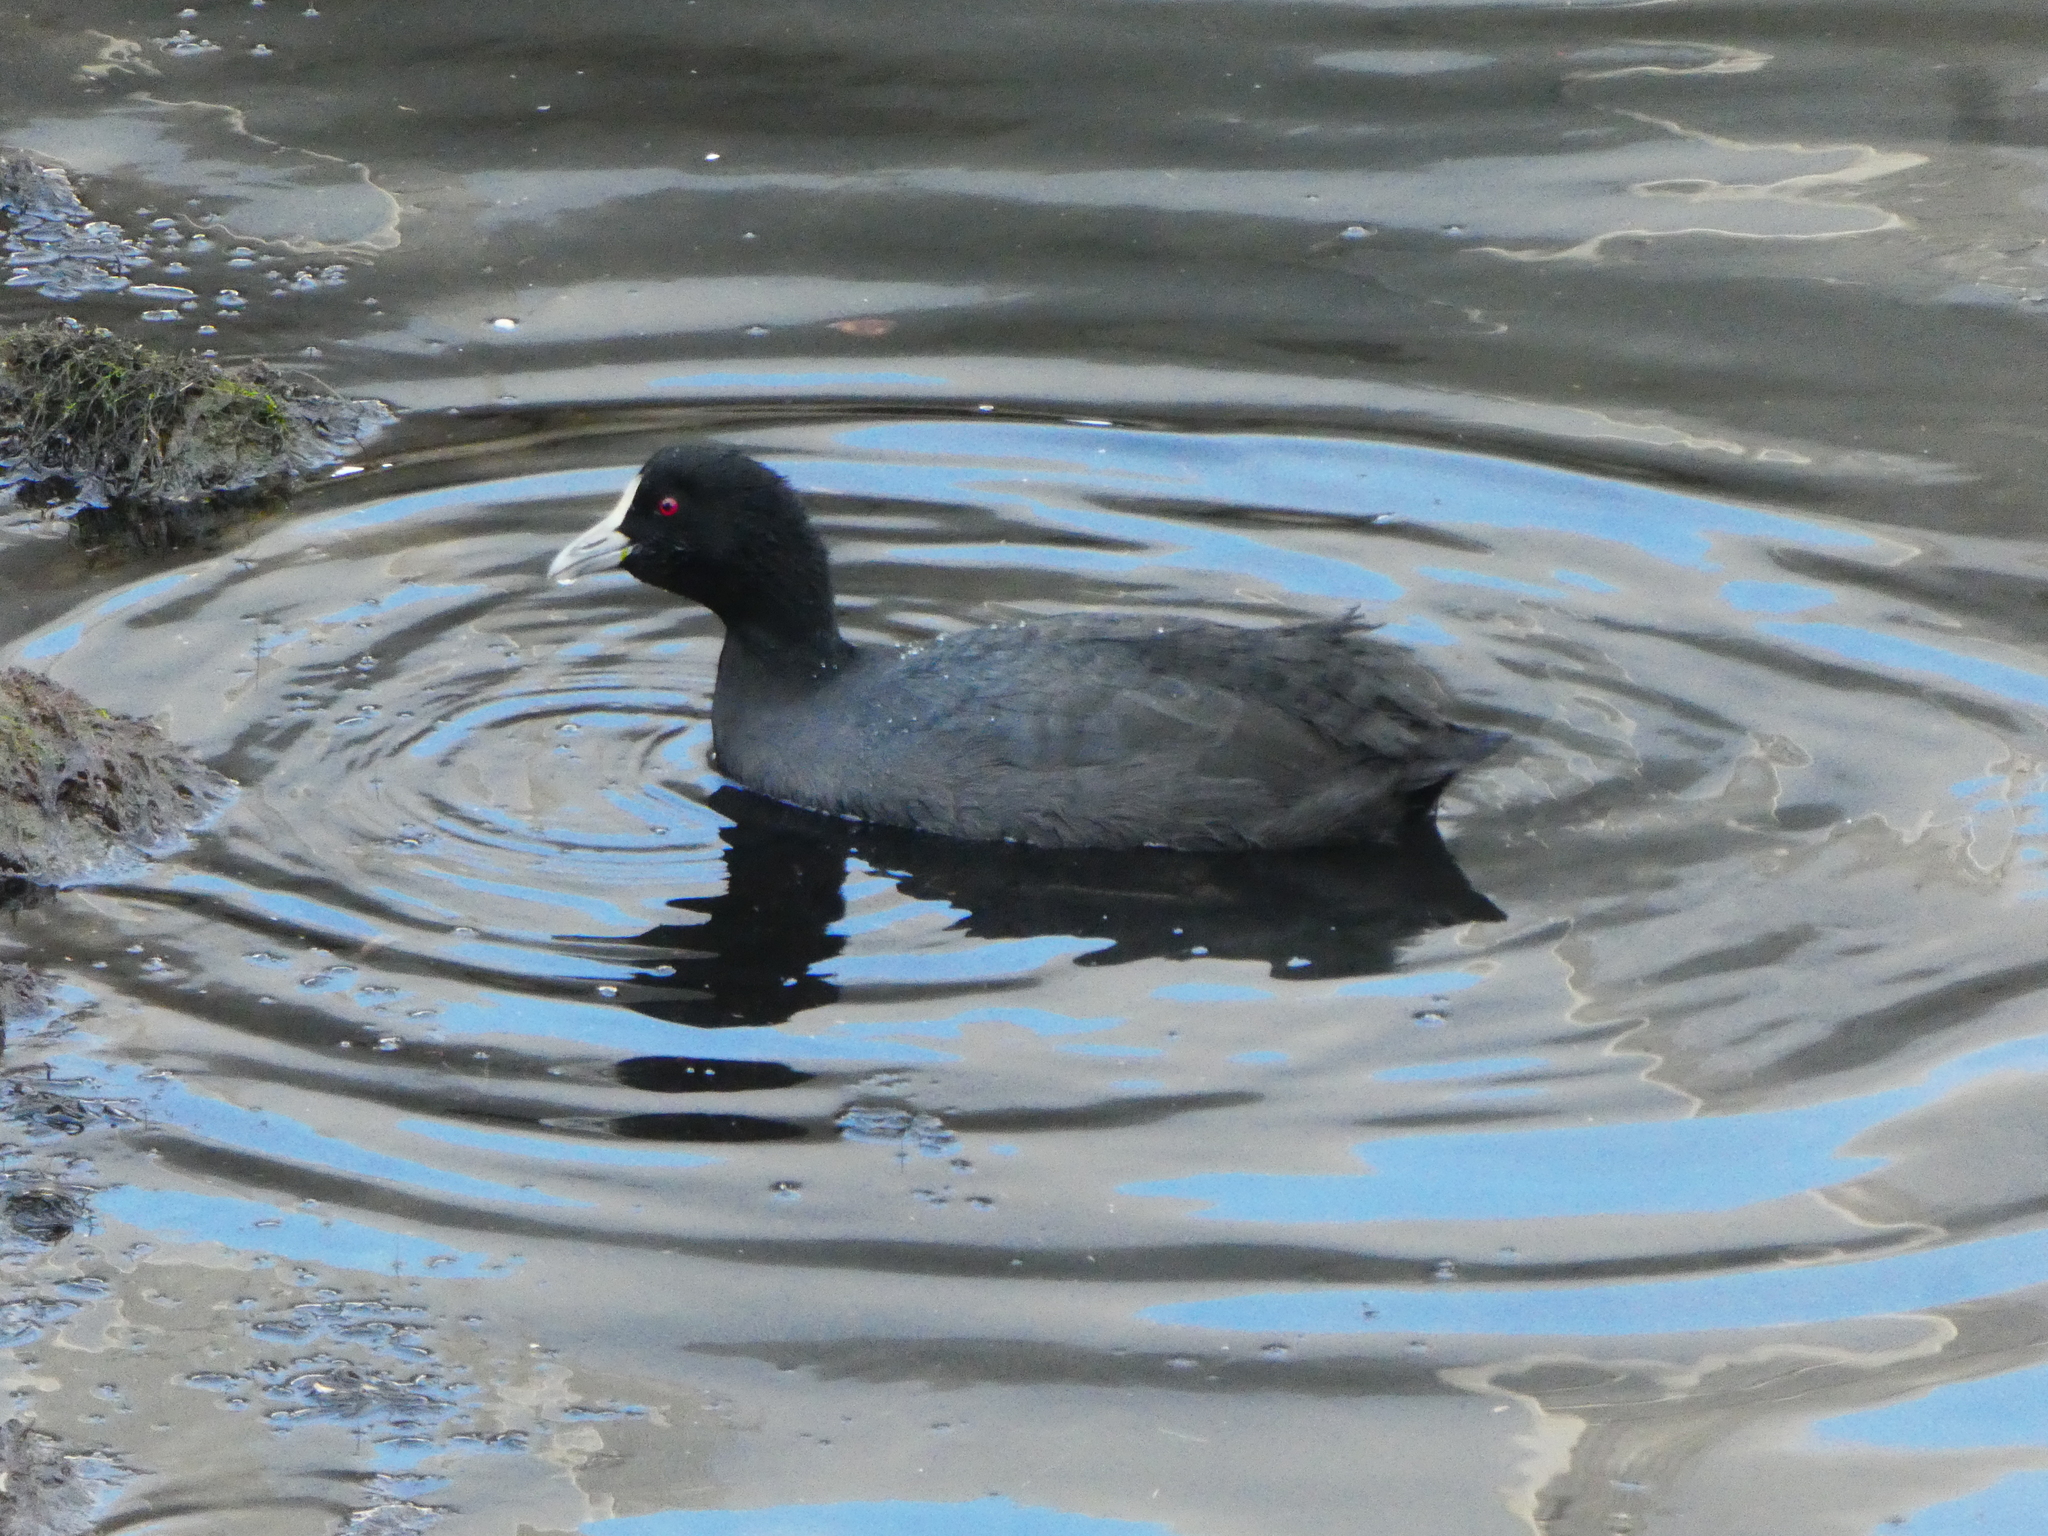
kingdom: Animalia
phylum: Chordata
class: Aves
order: Gruiformes
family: Rallidae
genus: Fulica
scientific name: Fulica atra
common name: Eurasian coot
